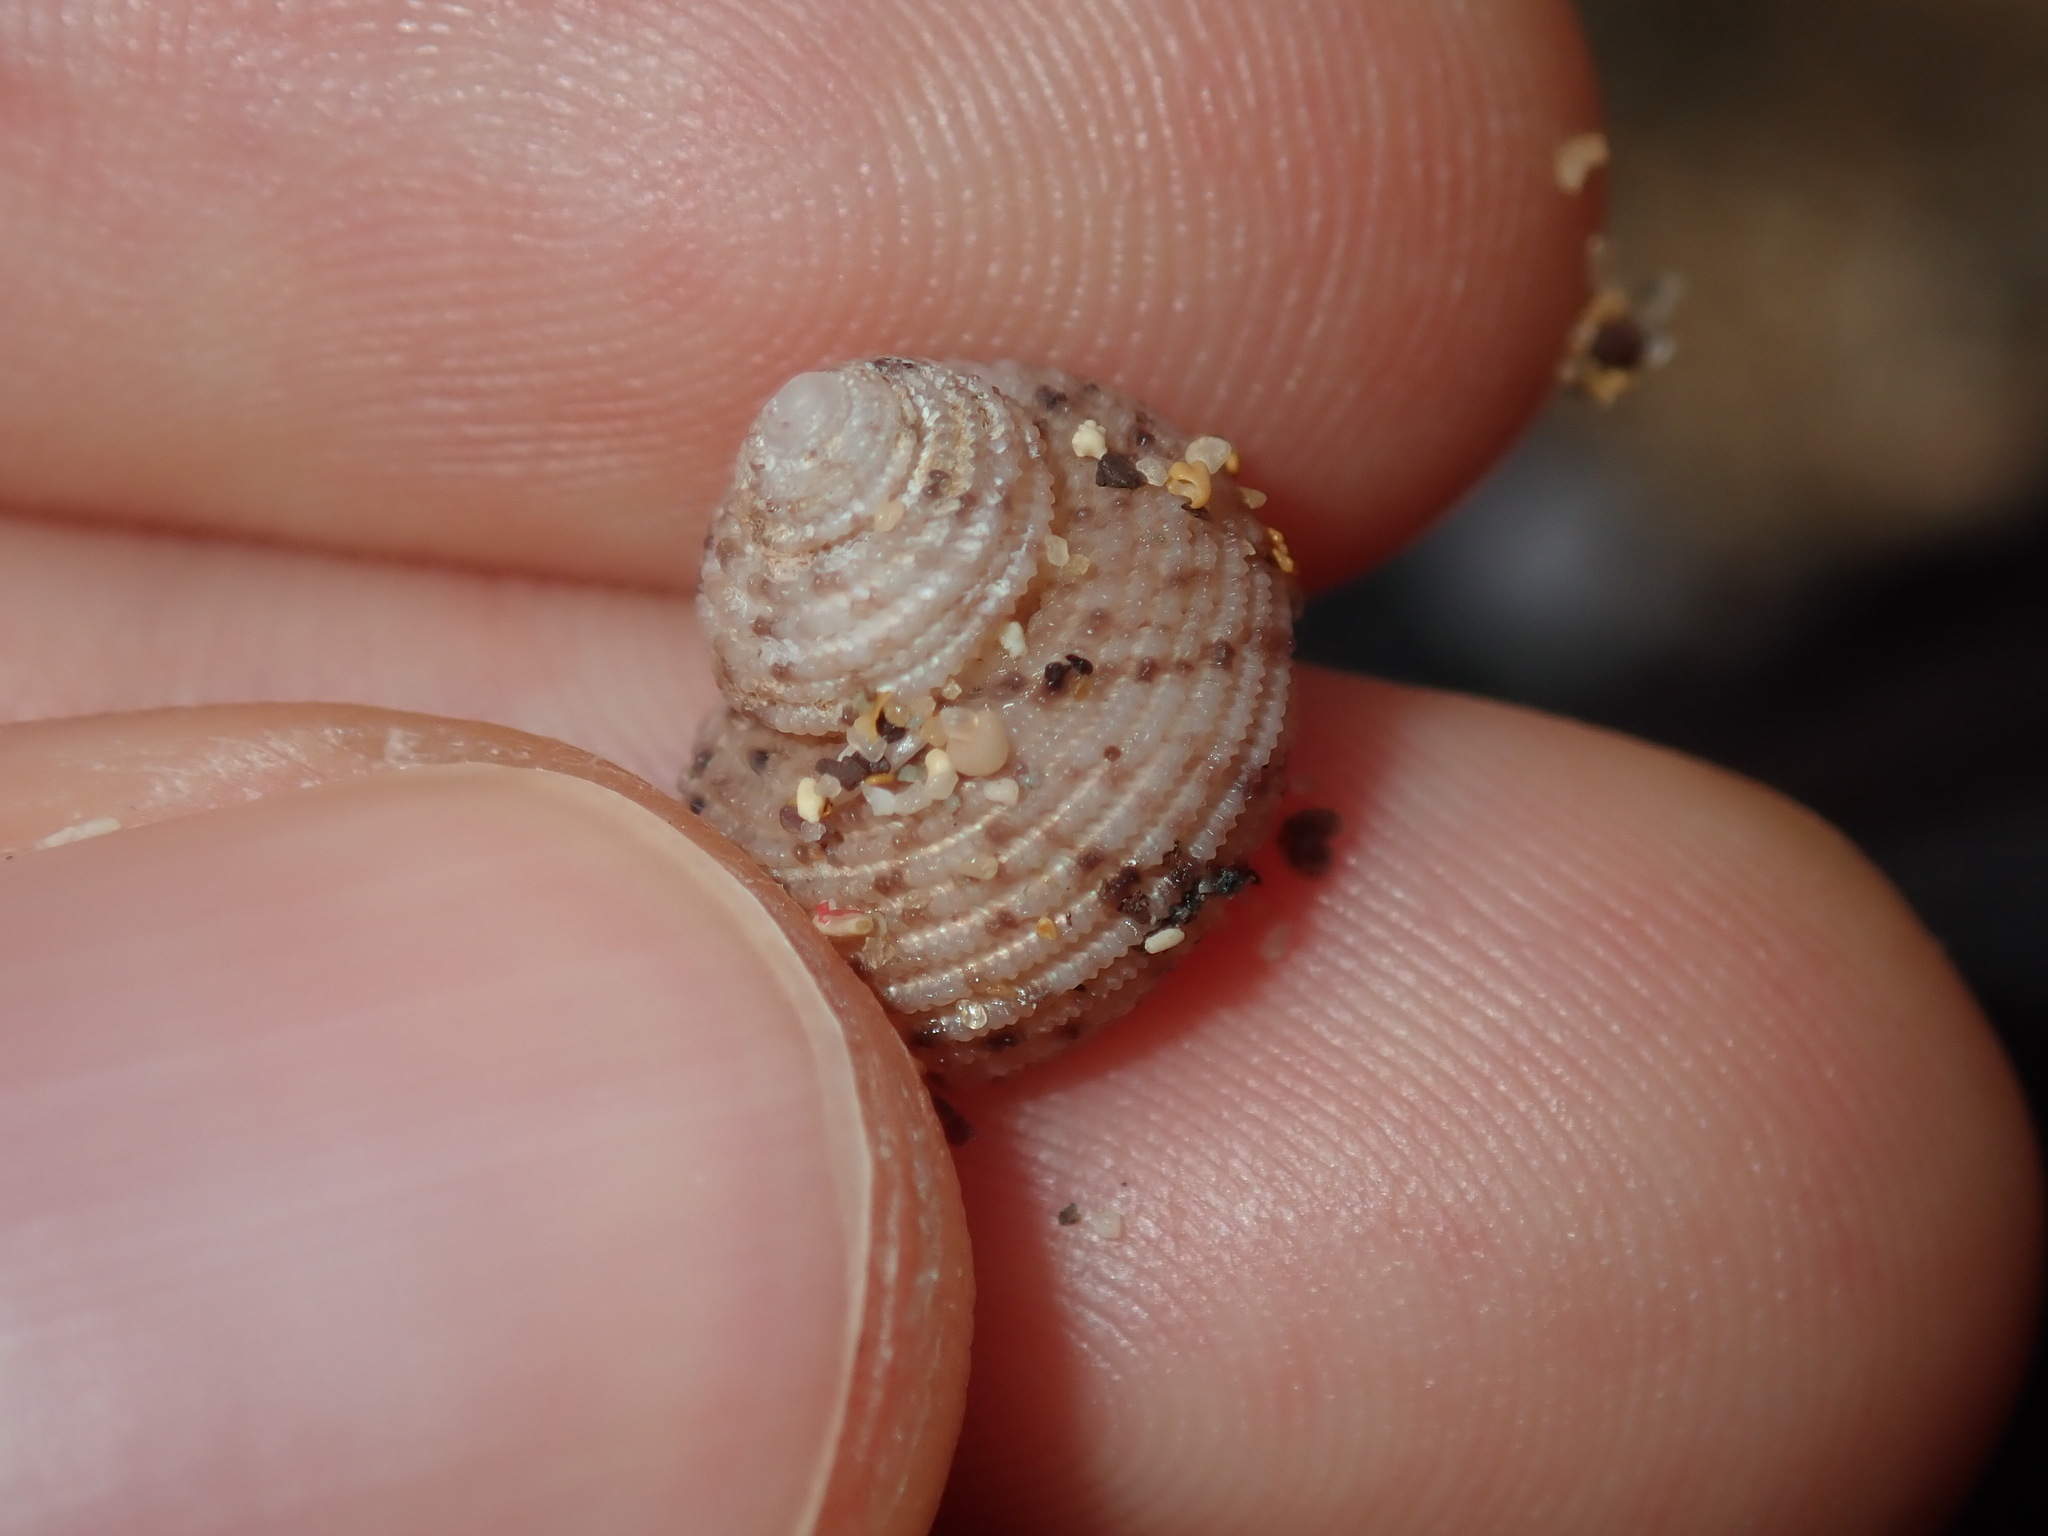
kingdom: Animalia
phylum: Mollusca
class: Gastropoda
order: Seguenziida
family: Chilodontaidae
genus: Herpetopoma
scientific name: Herpetopoma aspersum
